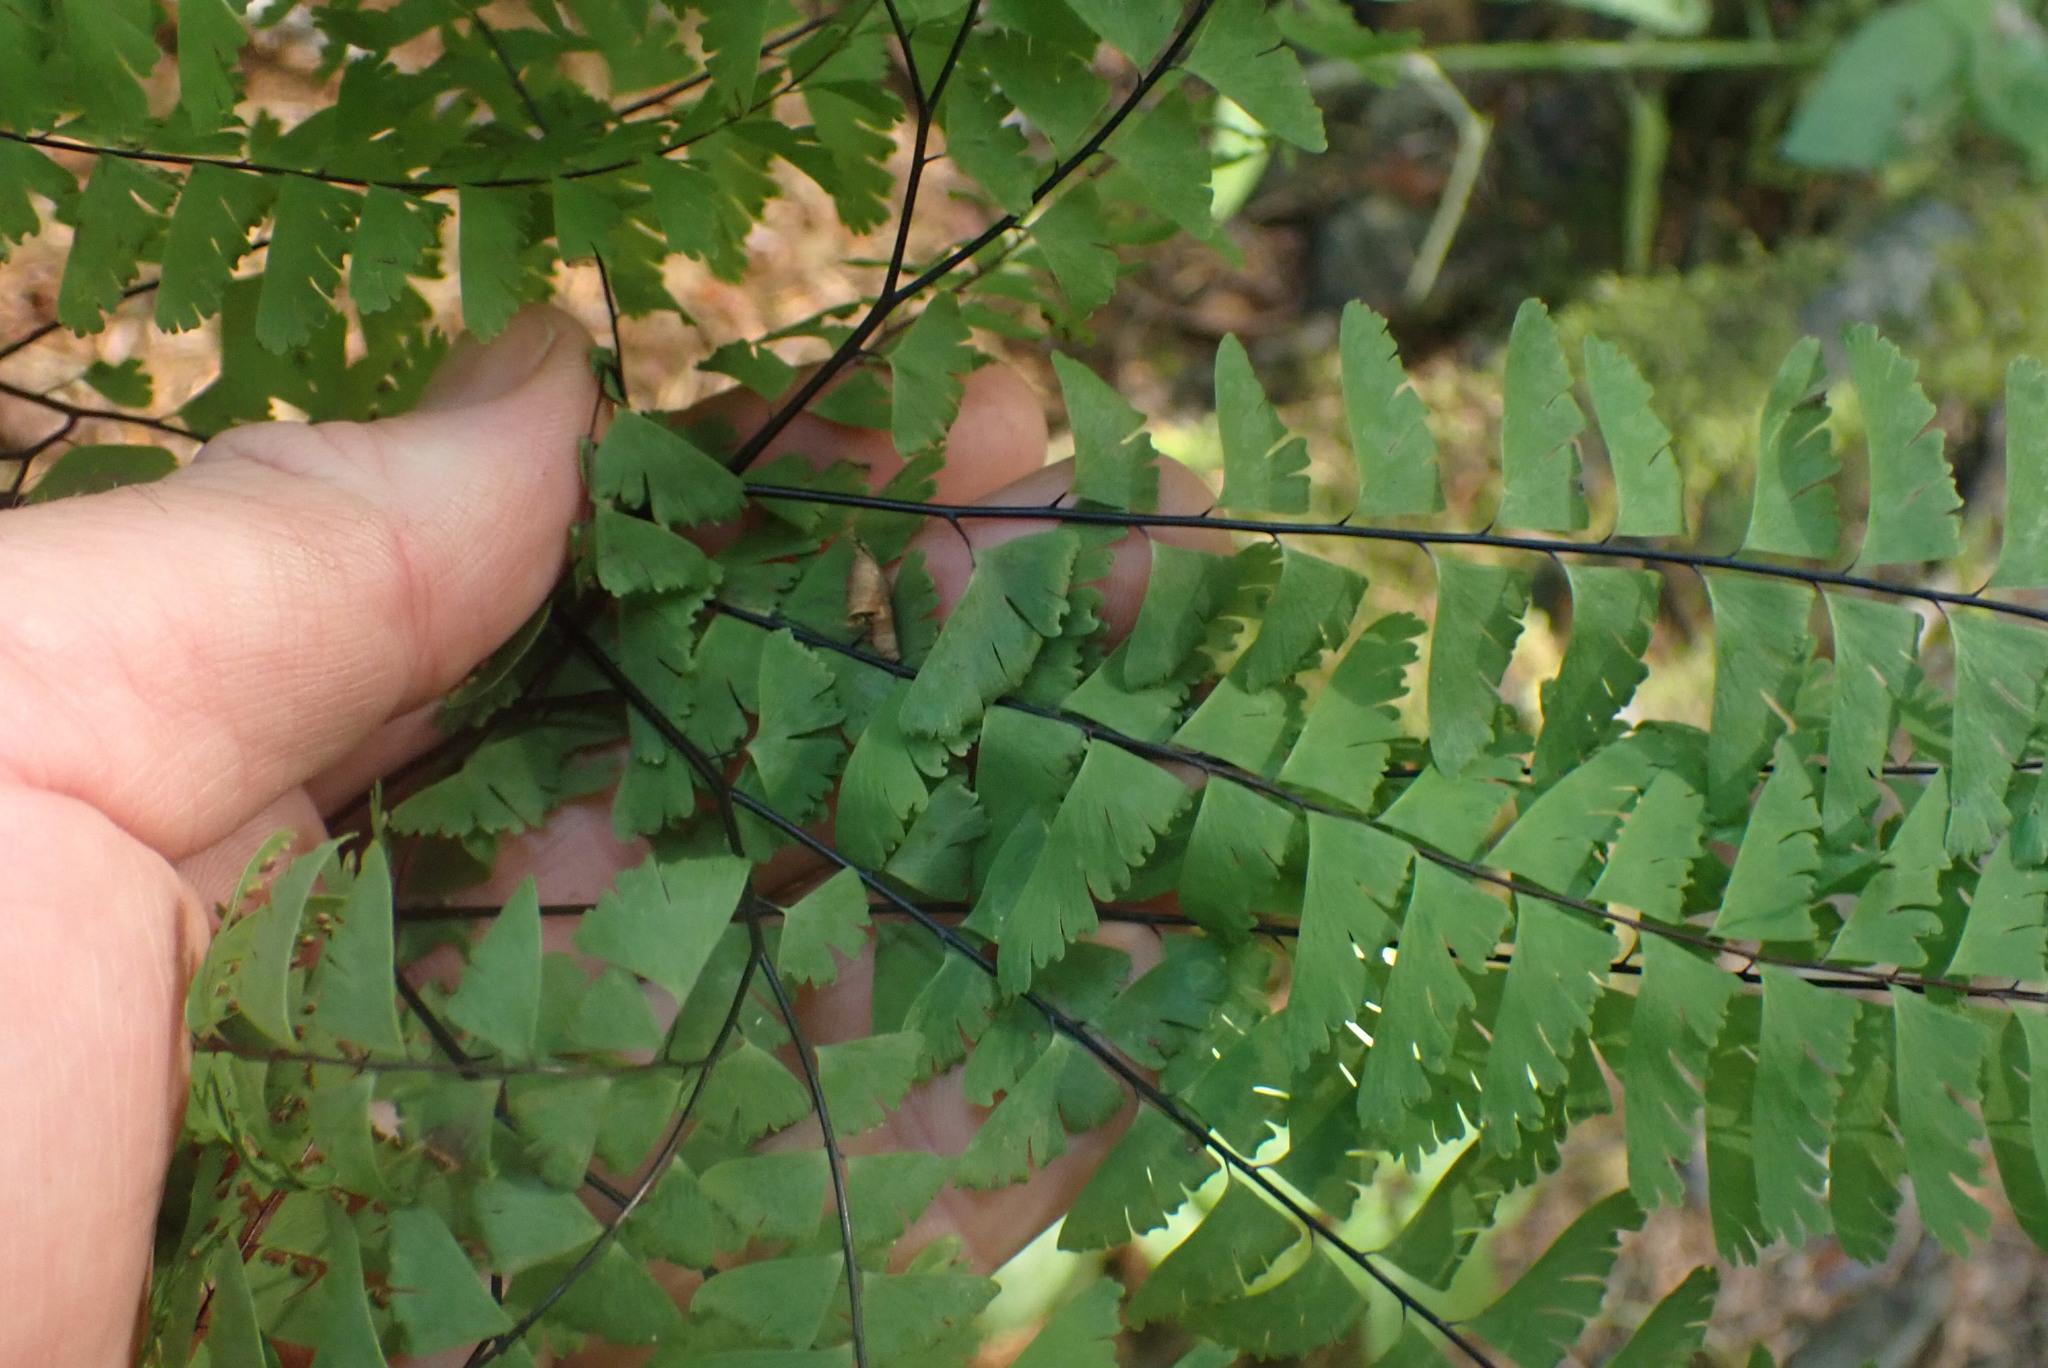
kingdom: Plantae
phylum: Tracheophyta
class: Polypodiopsida
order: Polypodiales
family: Pteridaceae
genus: Adiantum
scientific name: Adiantum aleuticum
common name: Aleutian maidenhair fern
